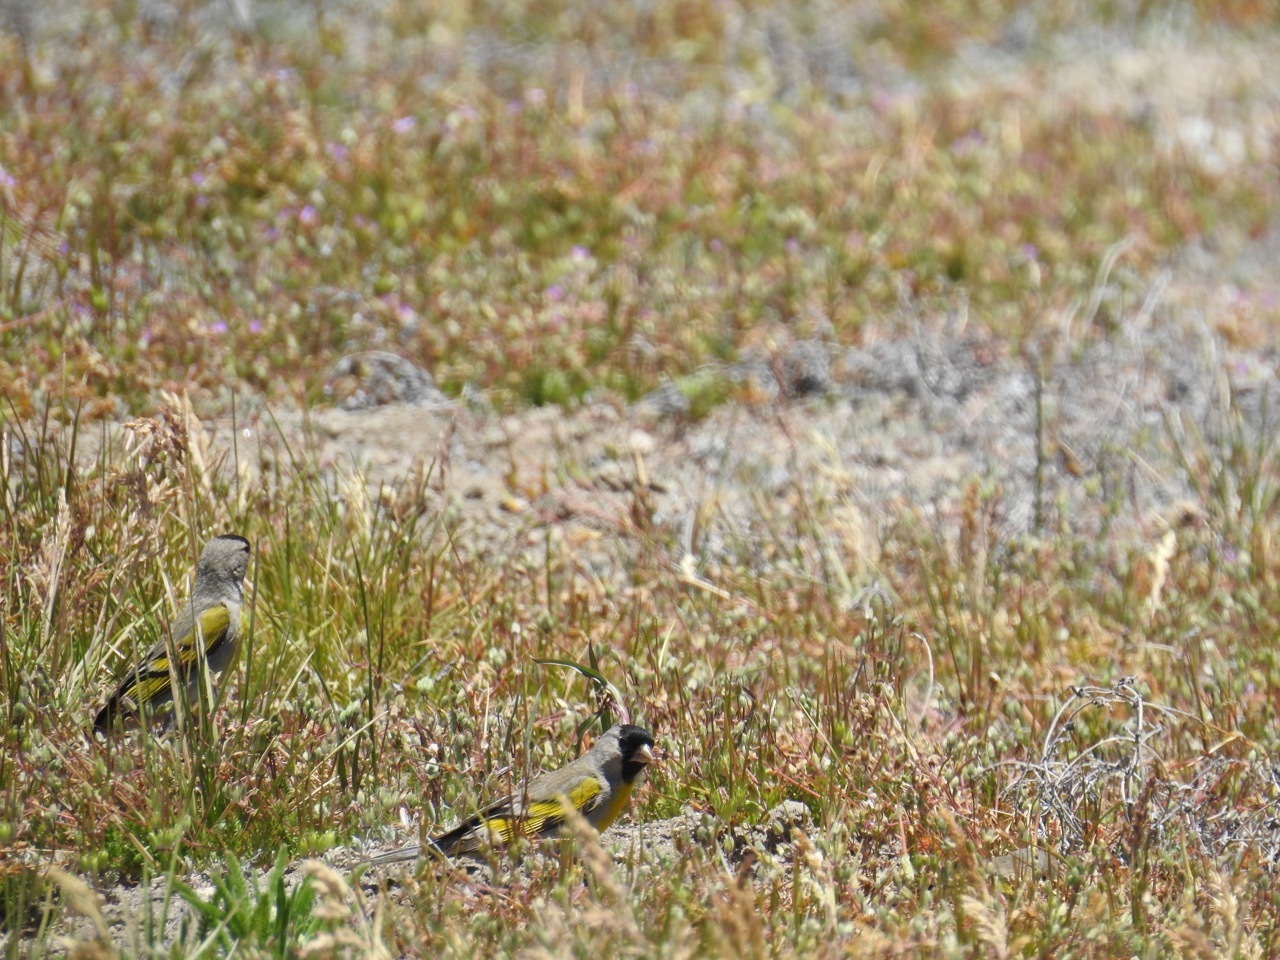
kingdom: Animalia
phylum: Chordata
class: Aves
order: Passeriformes
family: Fringillidae
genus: Spinus
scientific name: Spinus lawrencei
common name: Lawrence's goldfinch
